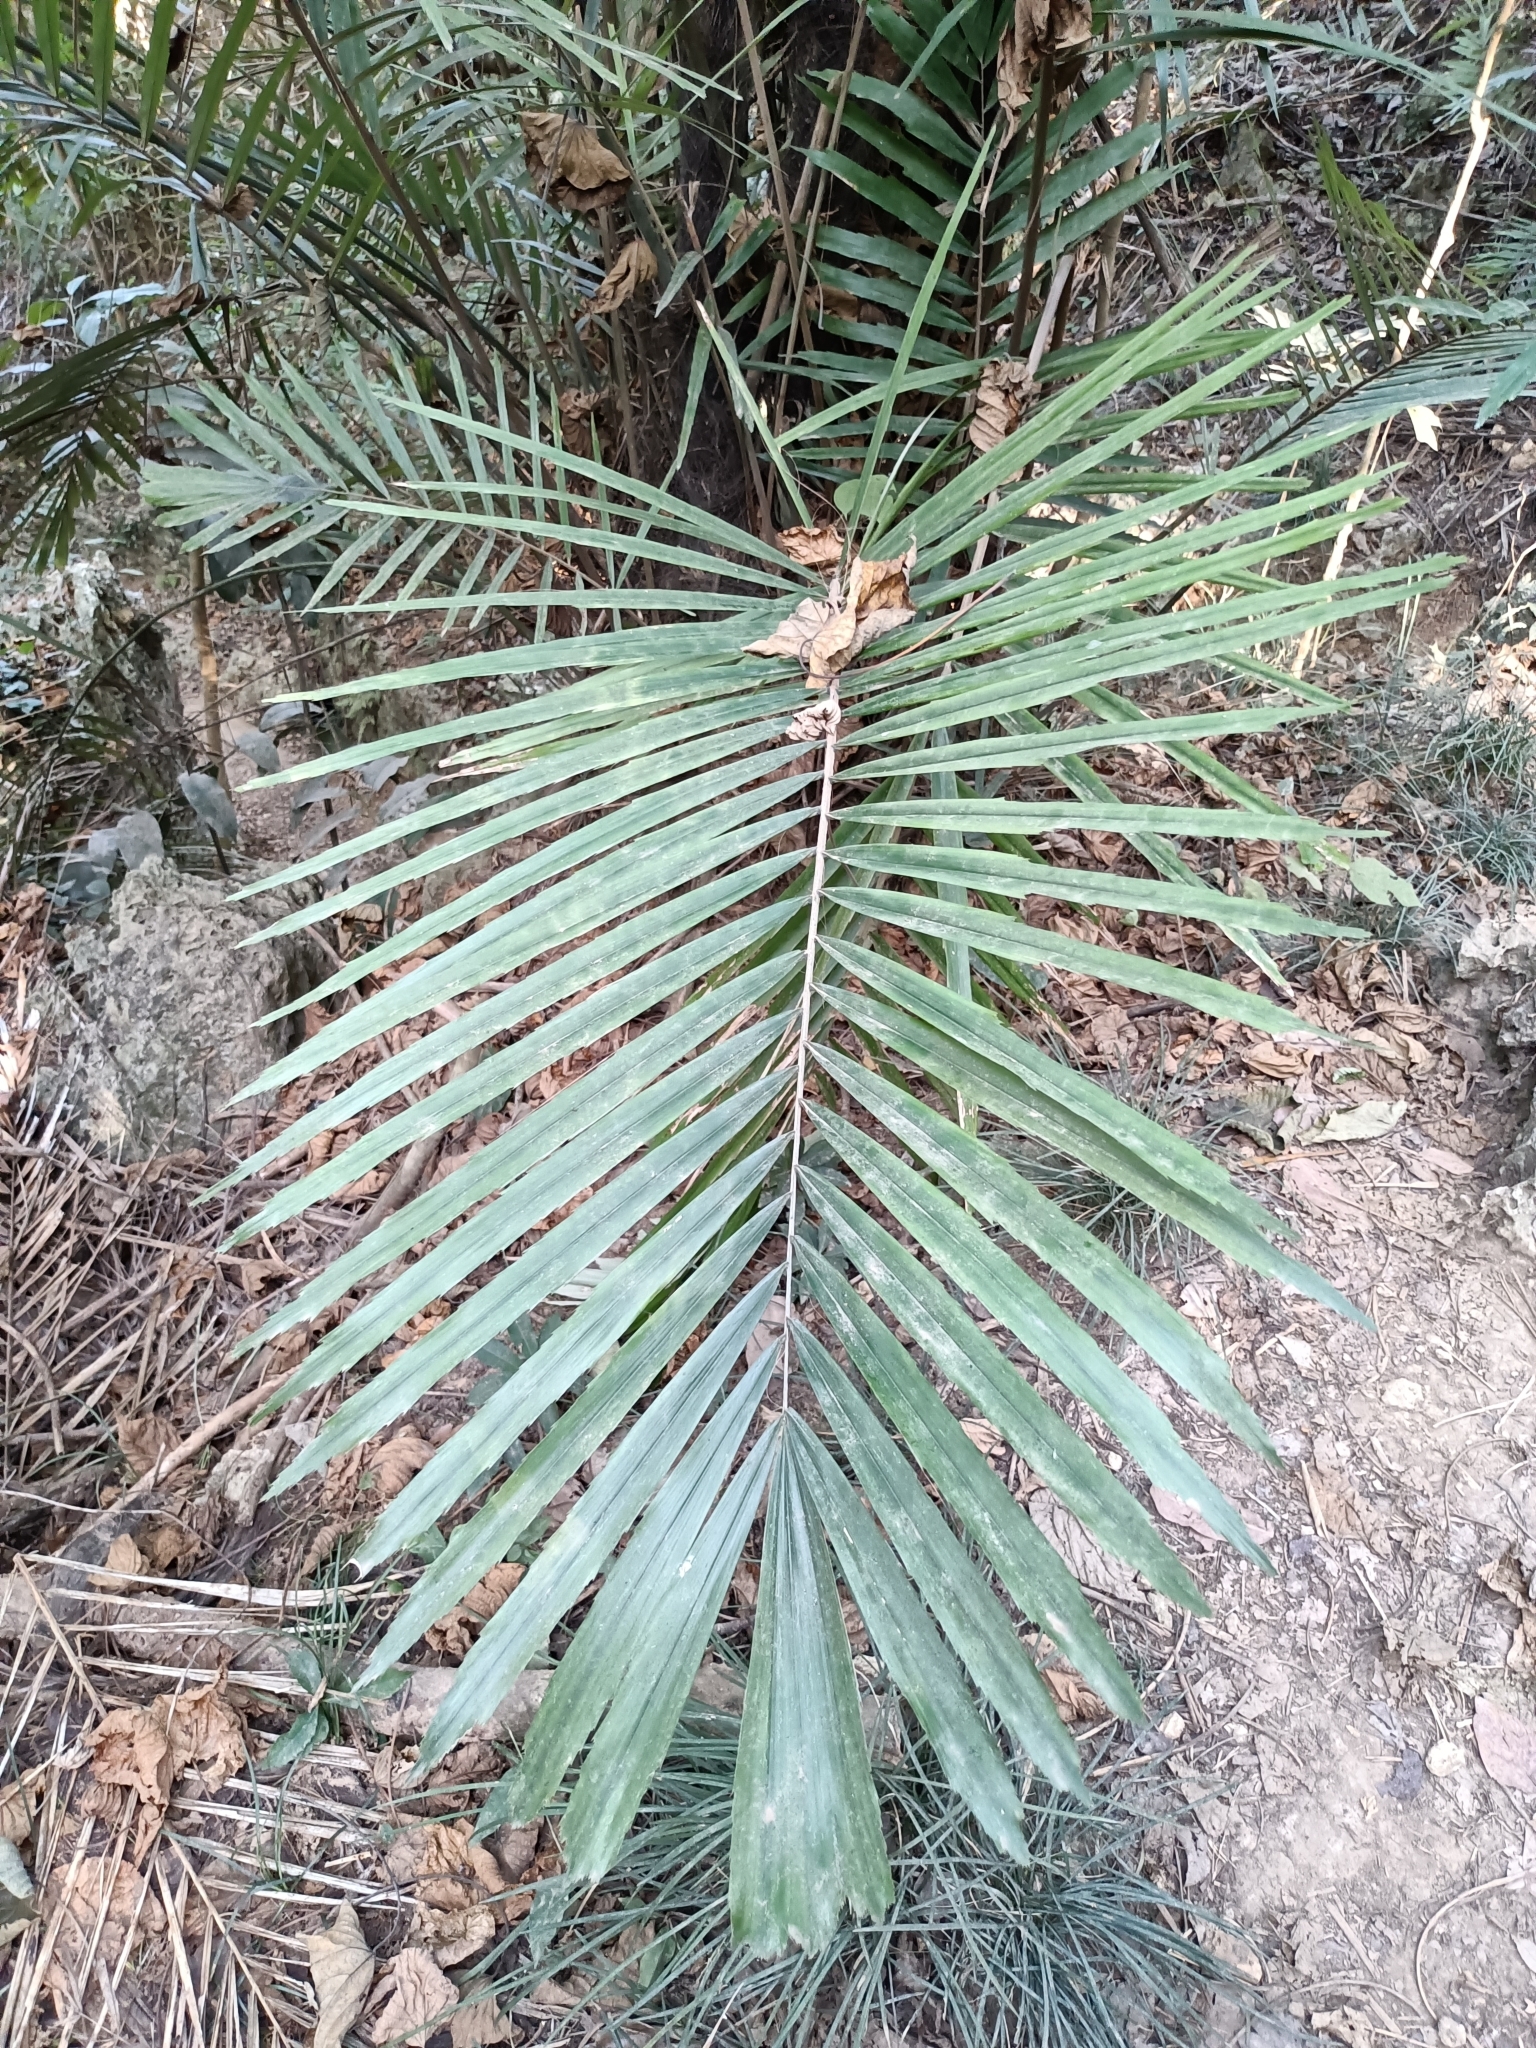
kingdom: Plantae
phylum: Tracheophyta
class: Liliopsida
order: Arecales
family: Arecaceae
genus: Arenga
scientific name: Arenga engleri
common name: Formosan sugar palm
